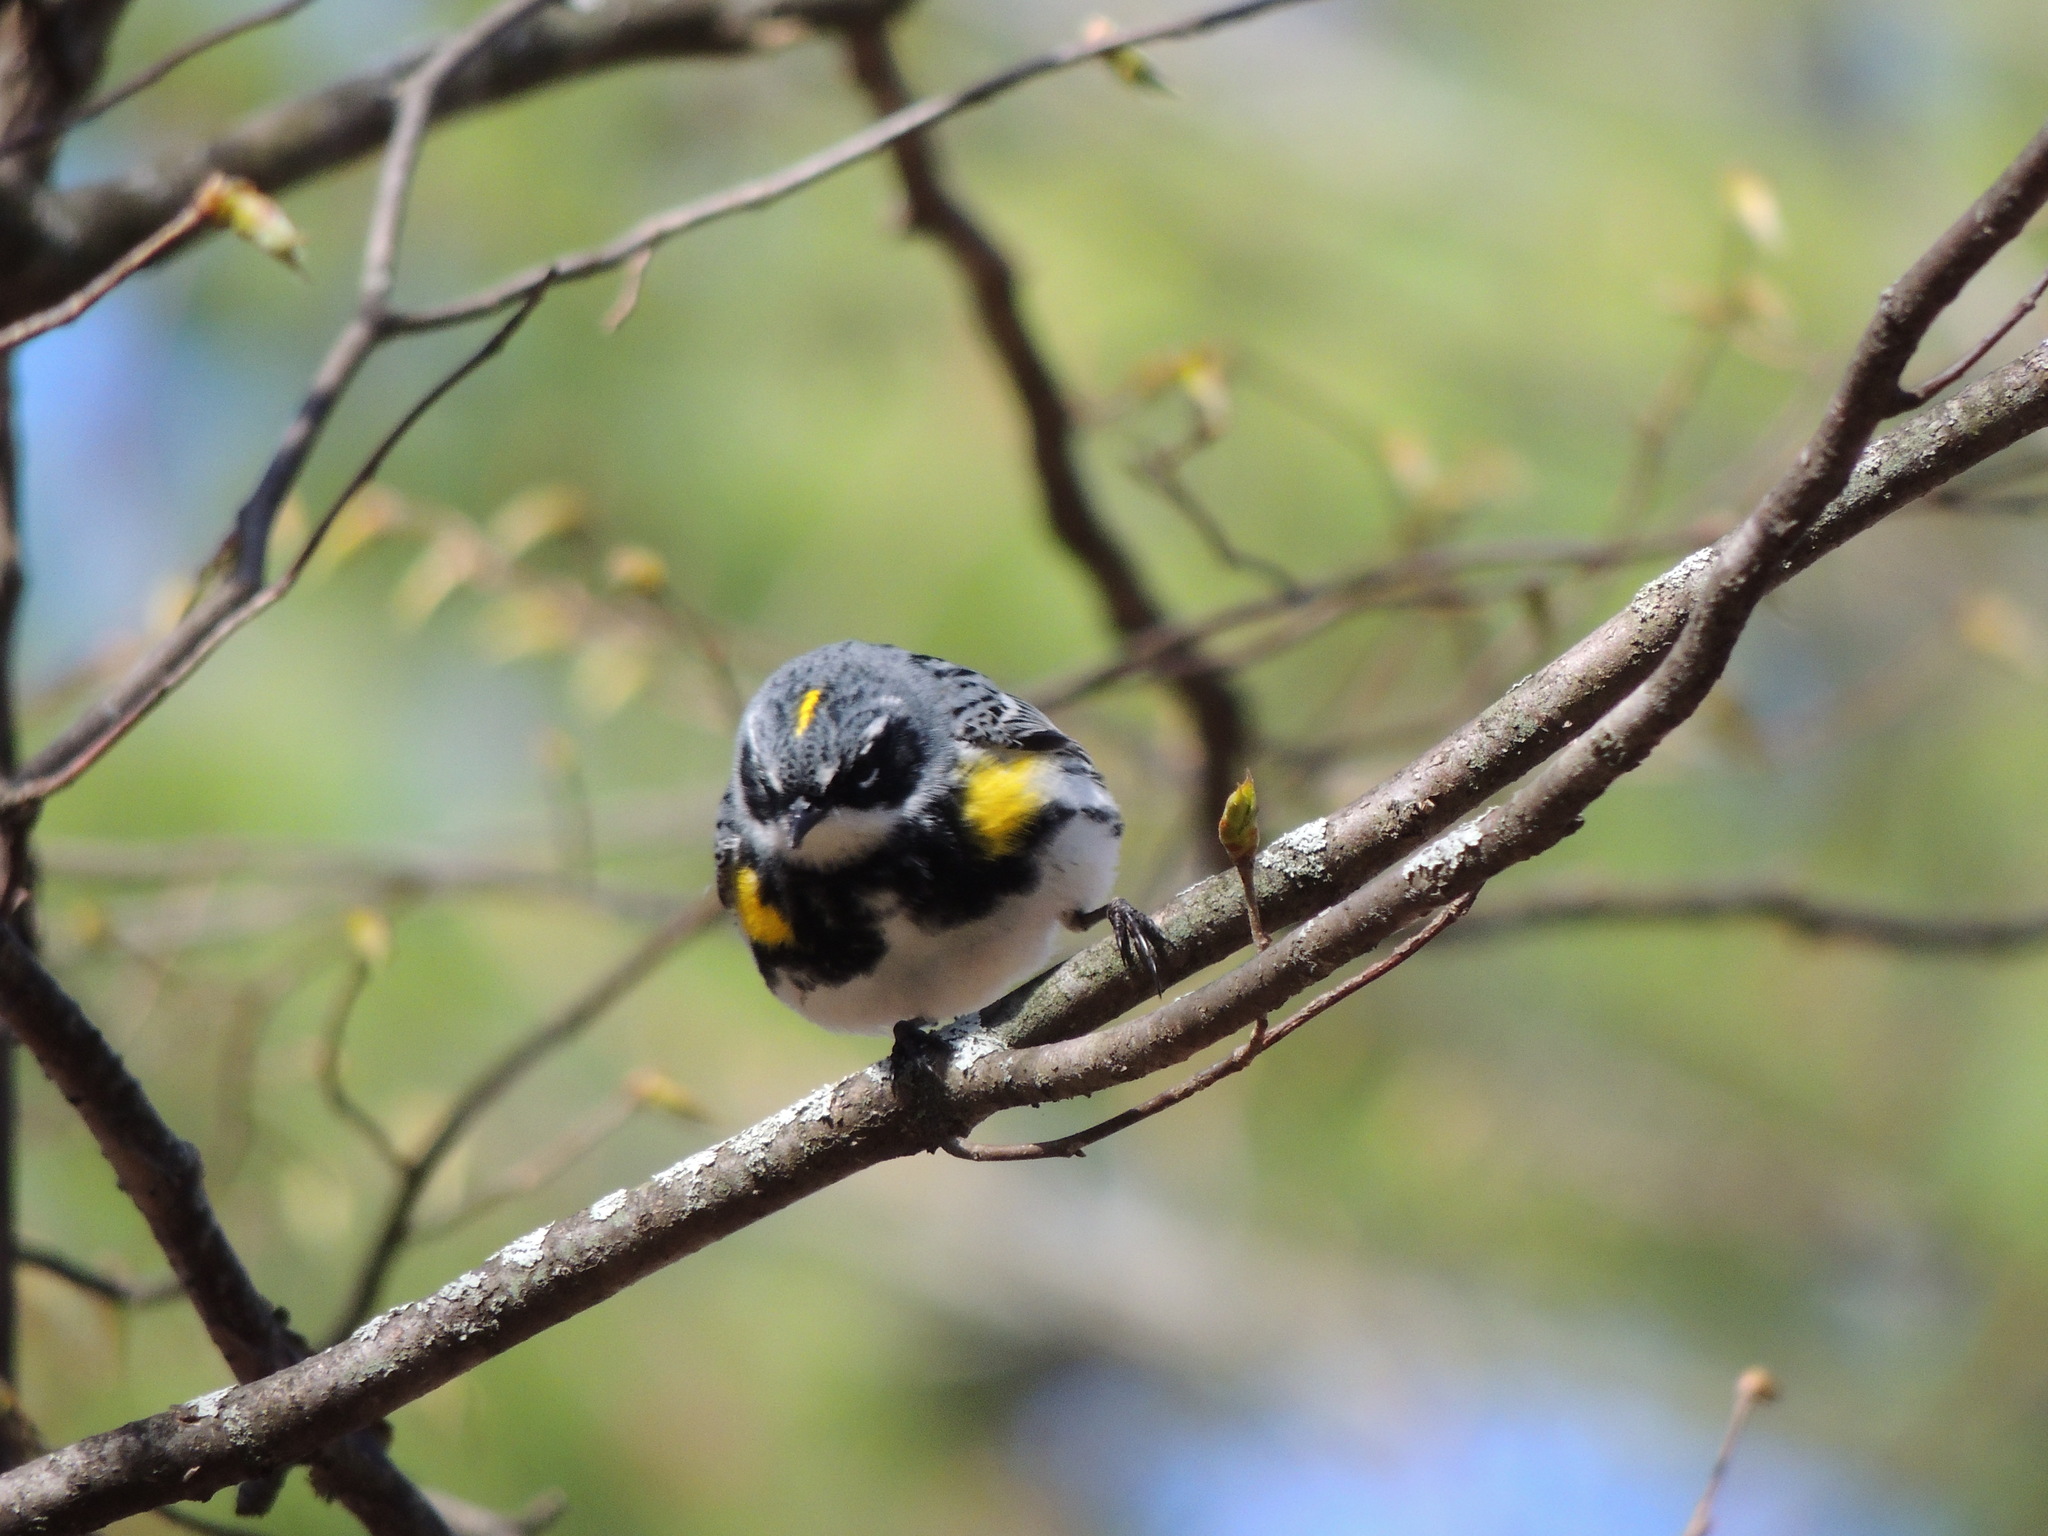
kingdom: Animalia
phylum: Chordata
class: Aves
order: Passeriformes
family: Parulidae
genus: Setophaga
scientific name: Setophaga coronata
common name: Myrtle warbler
